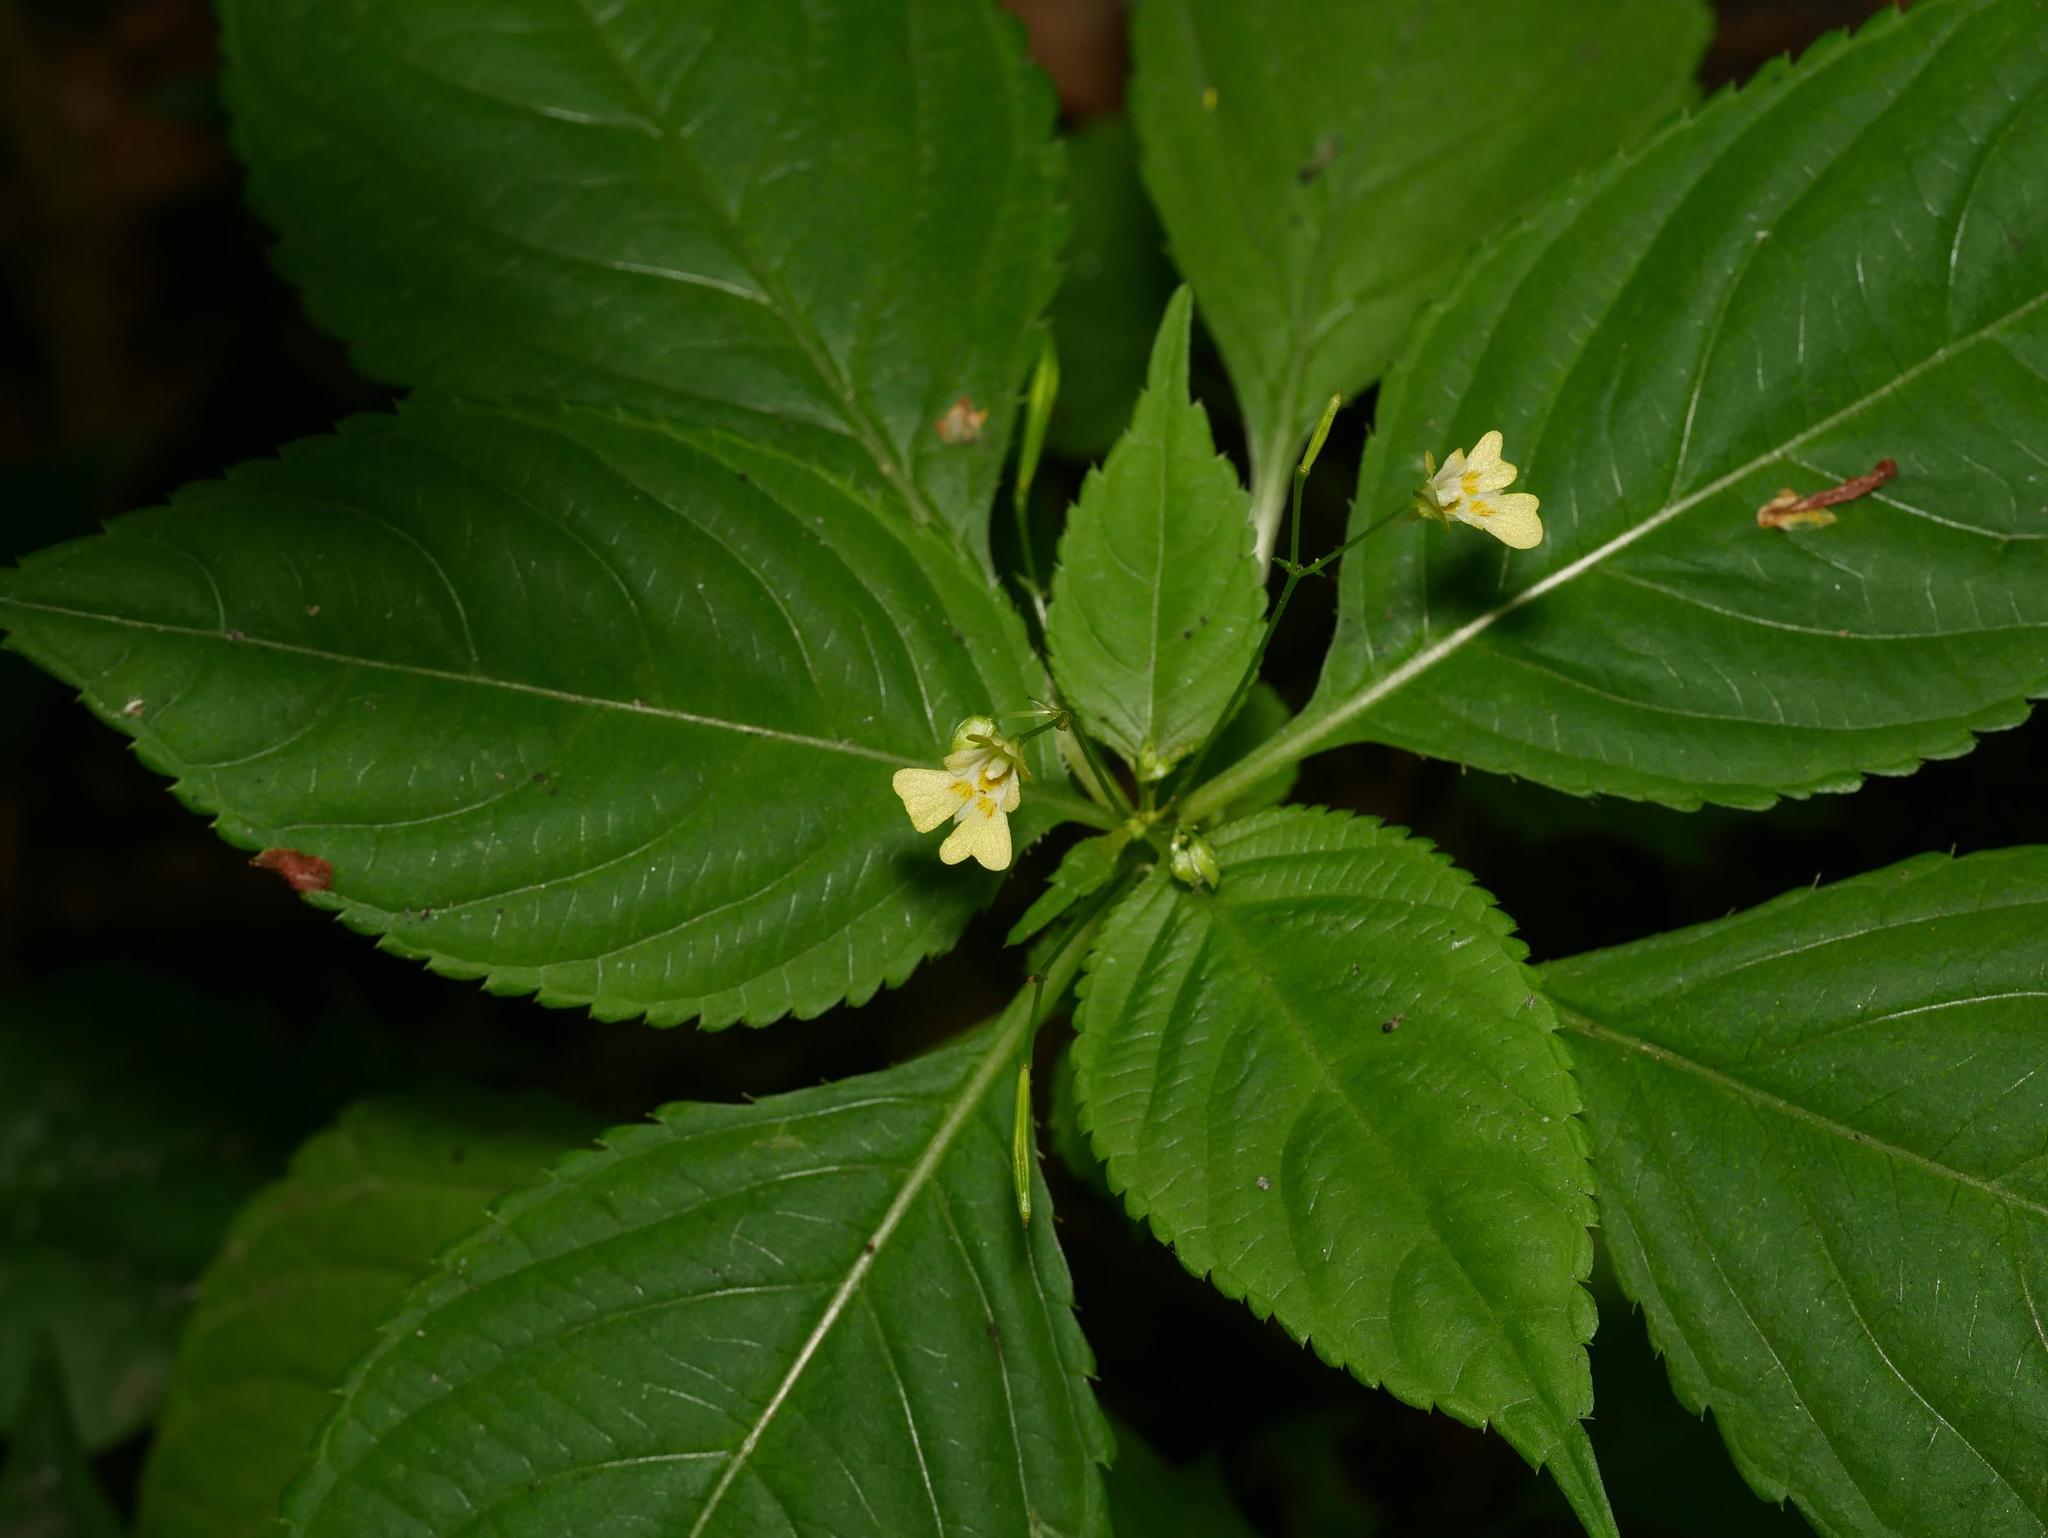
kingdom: Plantae
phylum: Tracheophyta
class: Magnoliopsida
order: Ericales
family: Balsaminaceae
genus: Impatiens
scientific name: Impatiens parviflora
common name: Small balsam
